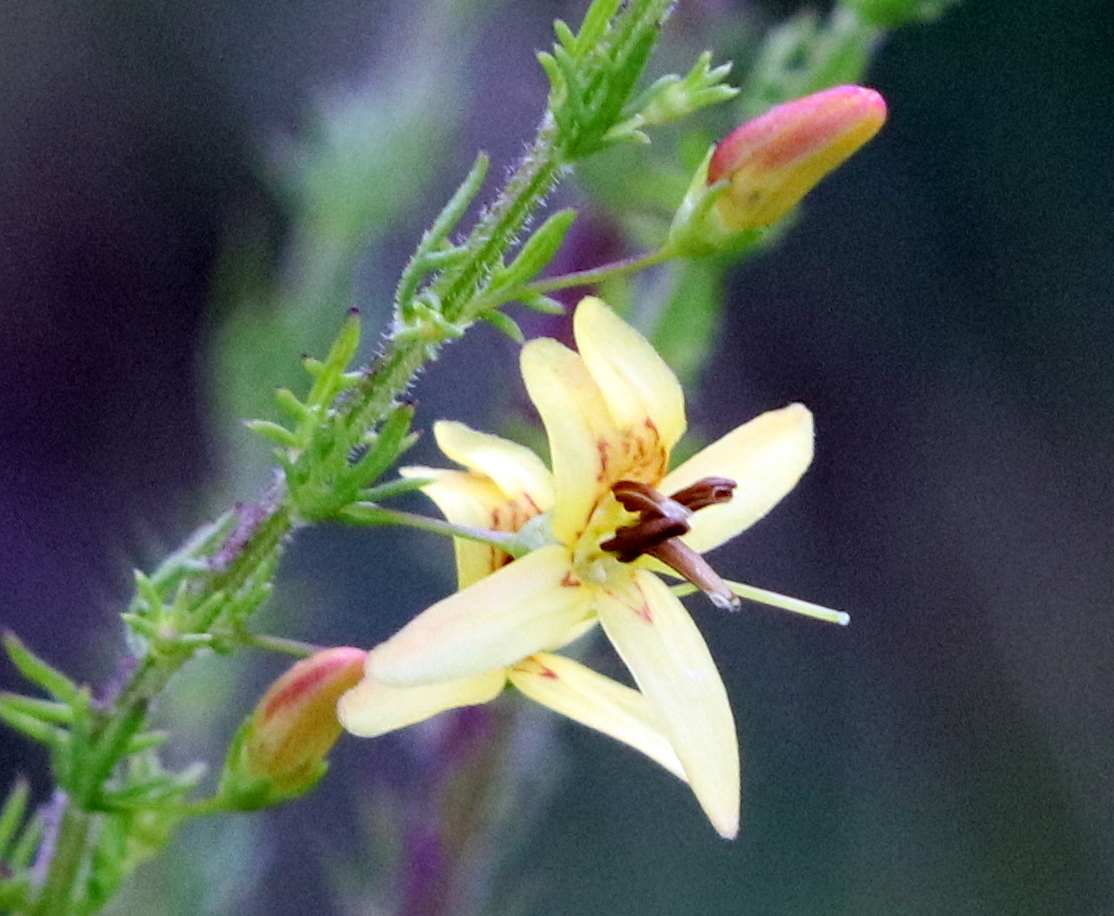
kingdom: Plantae
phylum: Tracheophyta
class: Magnoliopsida
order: Lamiales
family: Orobanchaceae
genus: Seymeria
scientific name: Seymeria cassioides
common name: Yaupon black-senna
